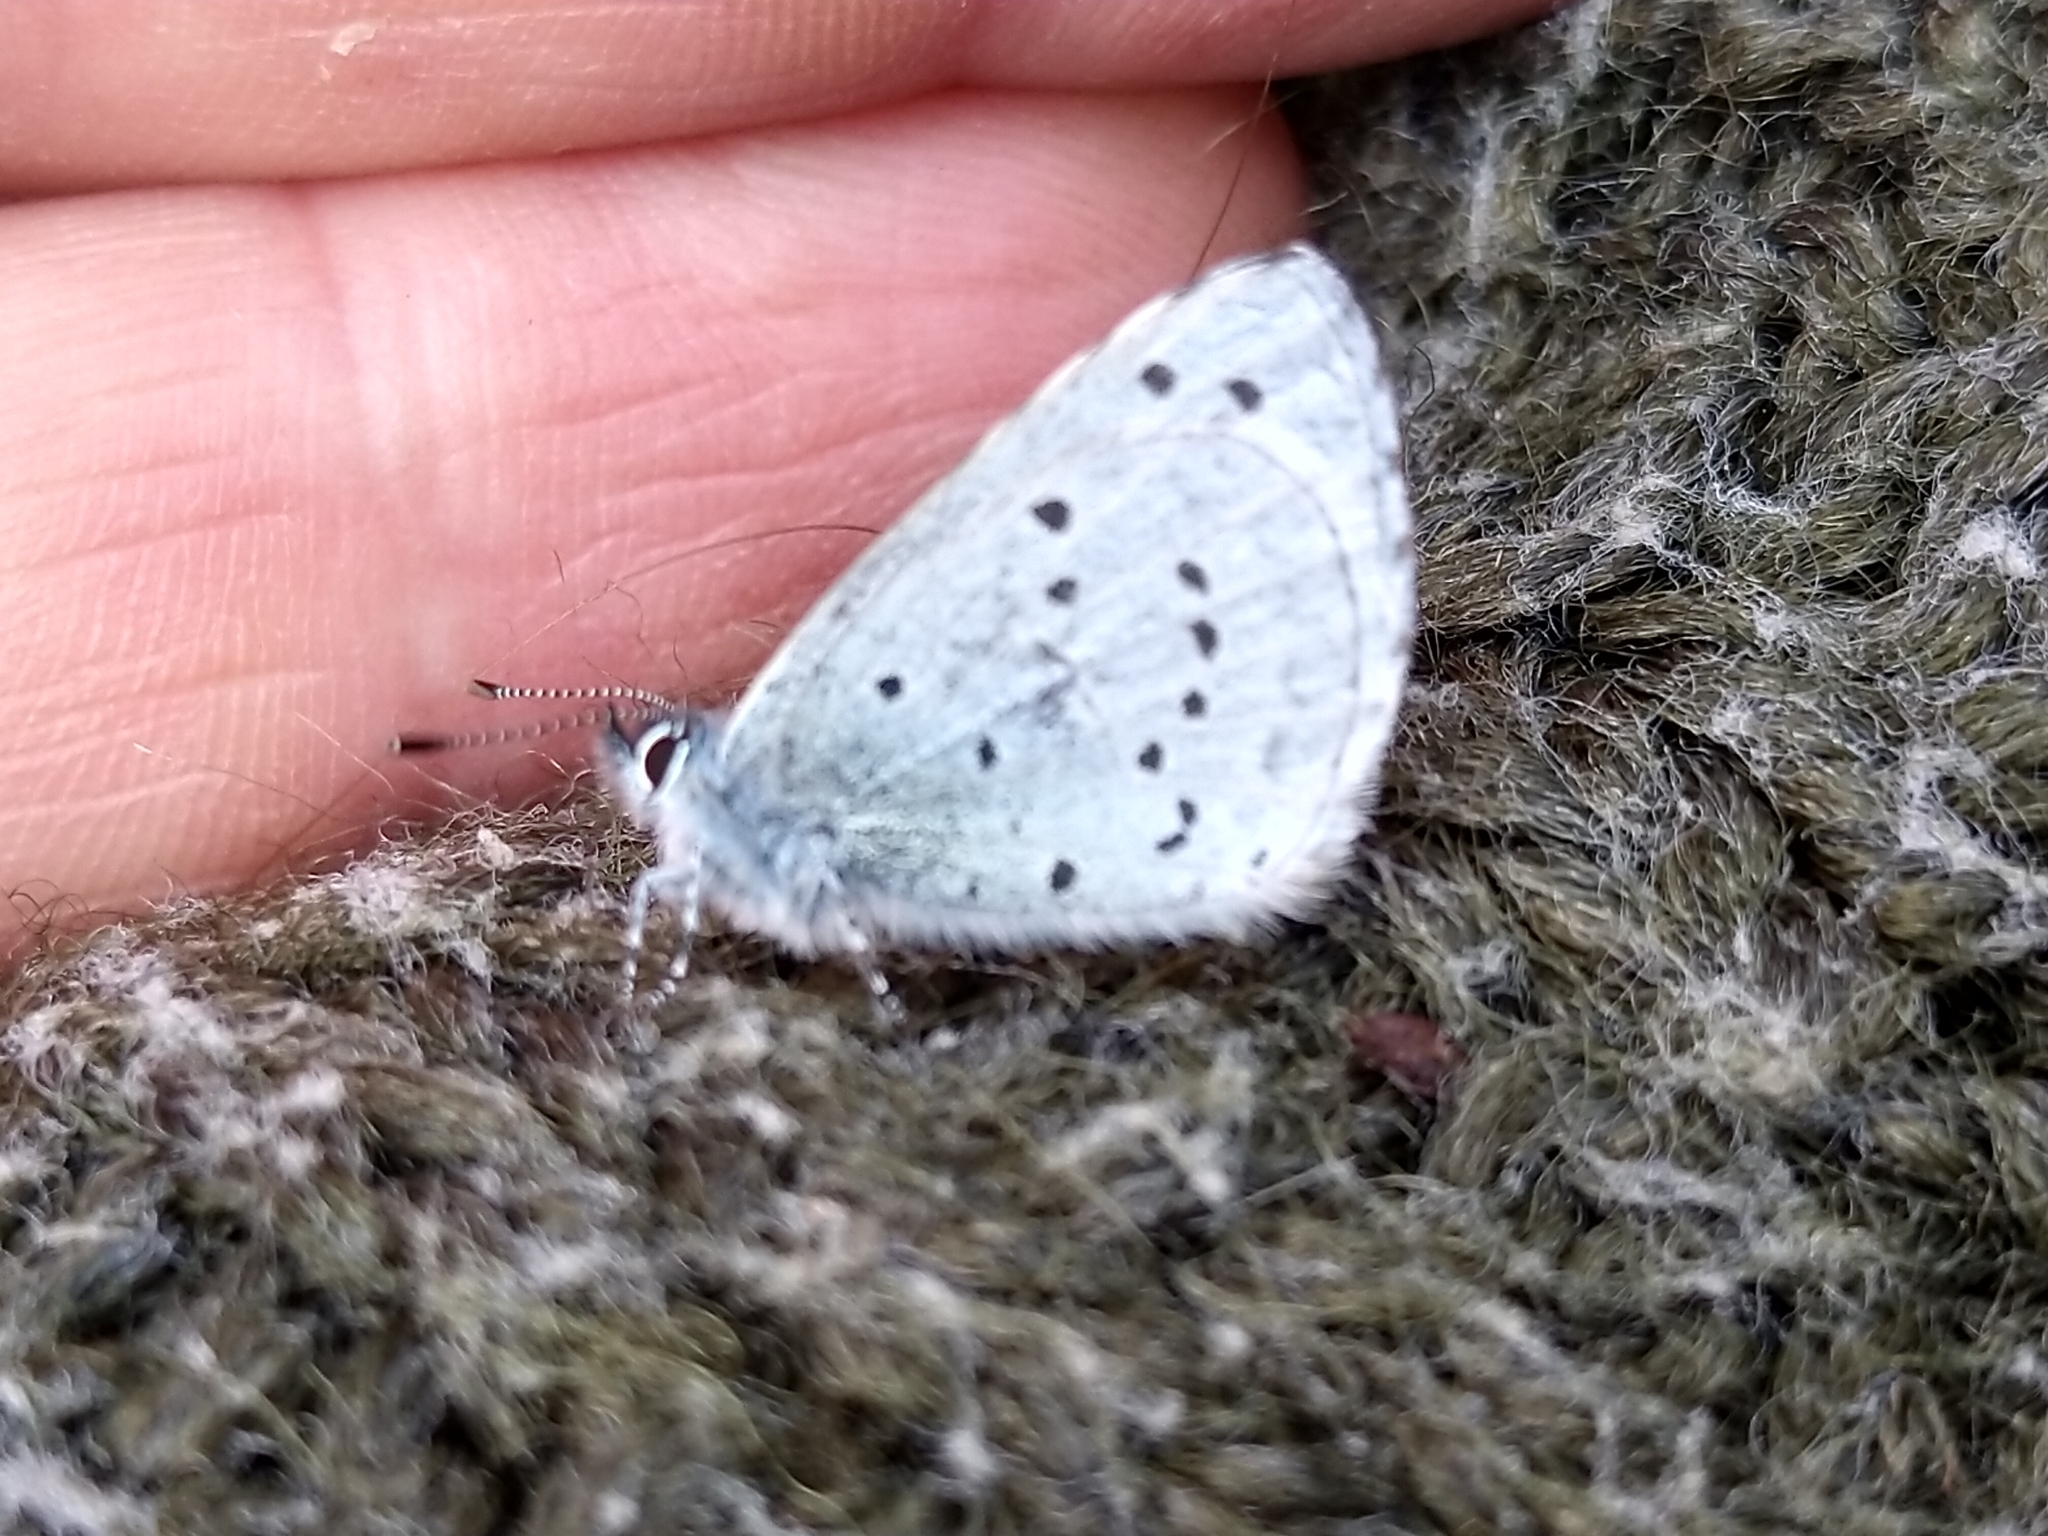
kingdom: Animalia
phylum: Arthropoda
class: Insecta
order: Lepidoptera
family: Lycaenidae
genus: Celastrina
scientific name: Celastrina argiolus
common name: Holly blue
